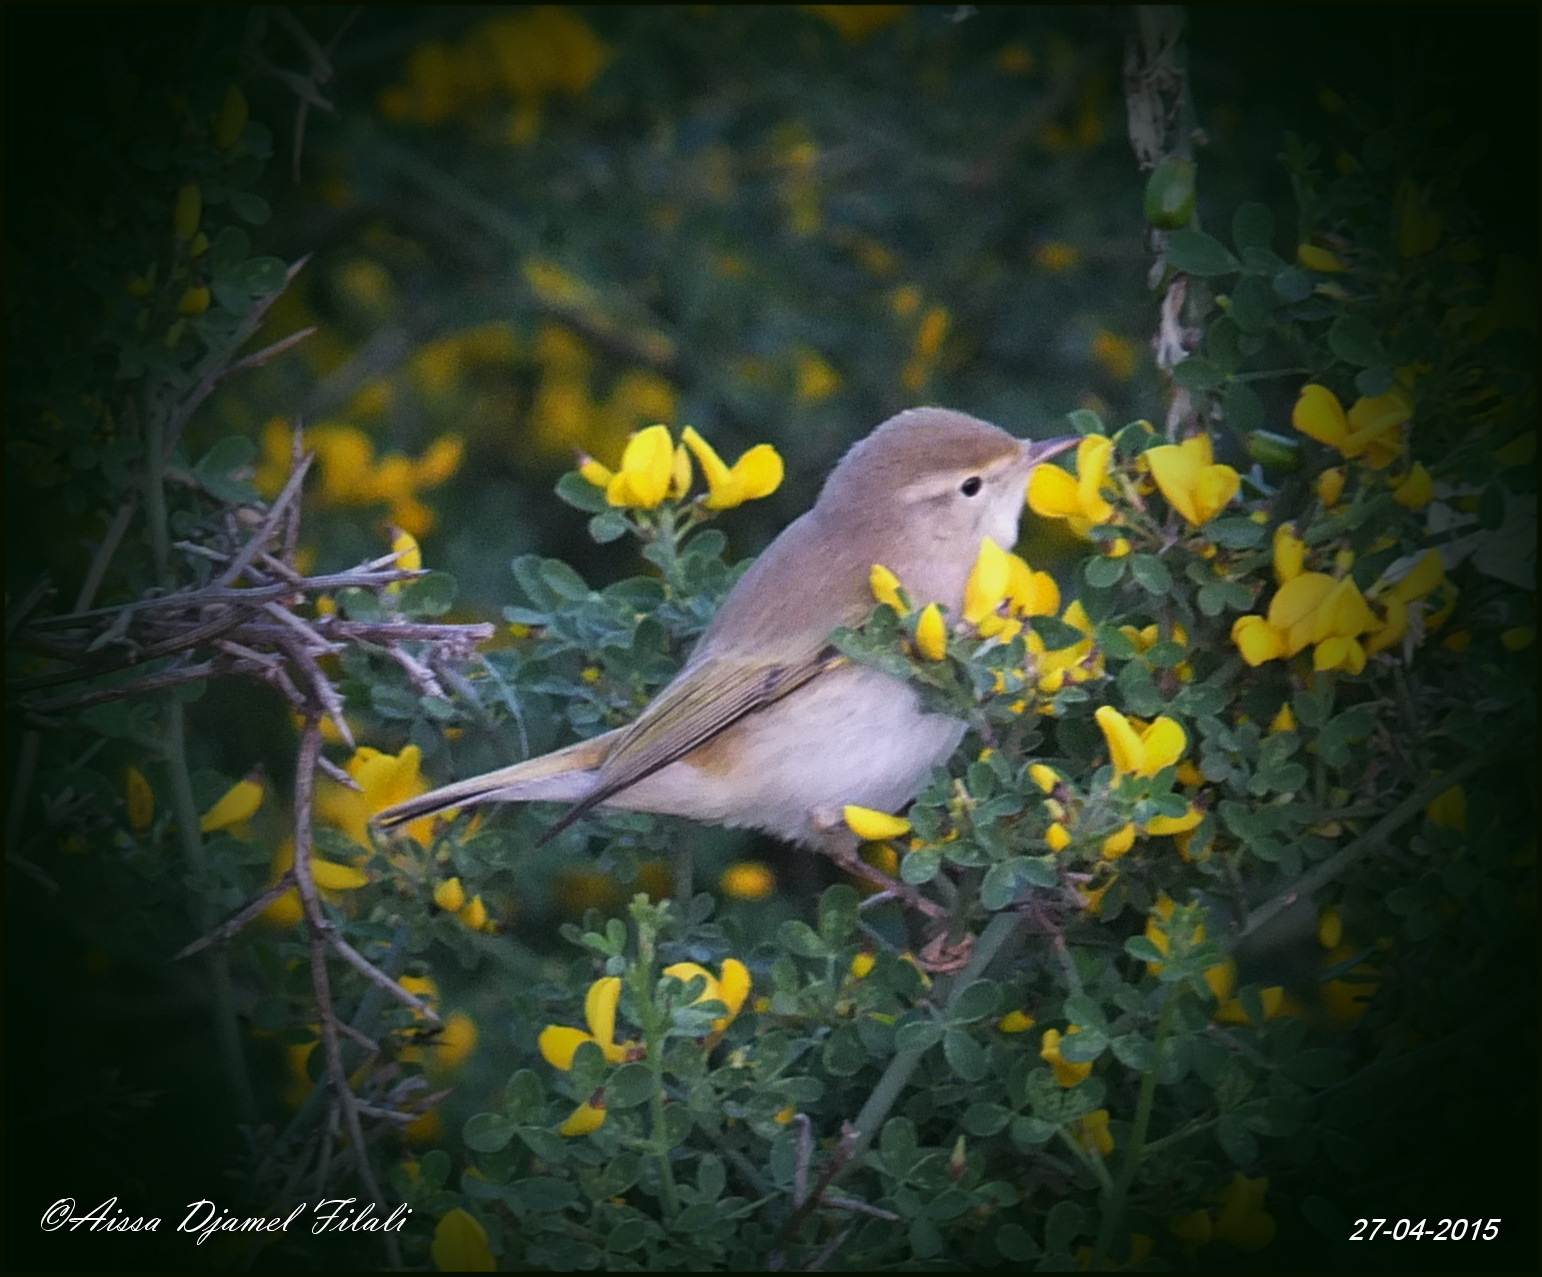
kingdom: Animalia
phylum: Chordata
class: Aves
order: Passeriformes
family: Phylloscopidae
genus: Phylloscopus
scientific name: Phylloscopus bonelli
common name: Western bonelli's warbler
